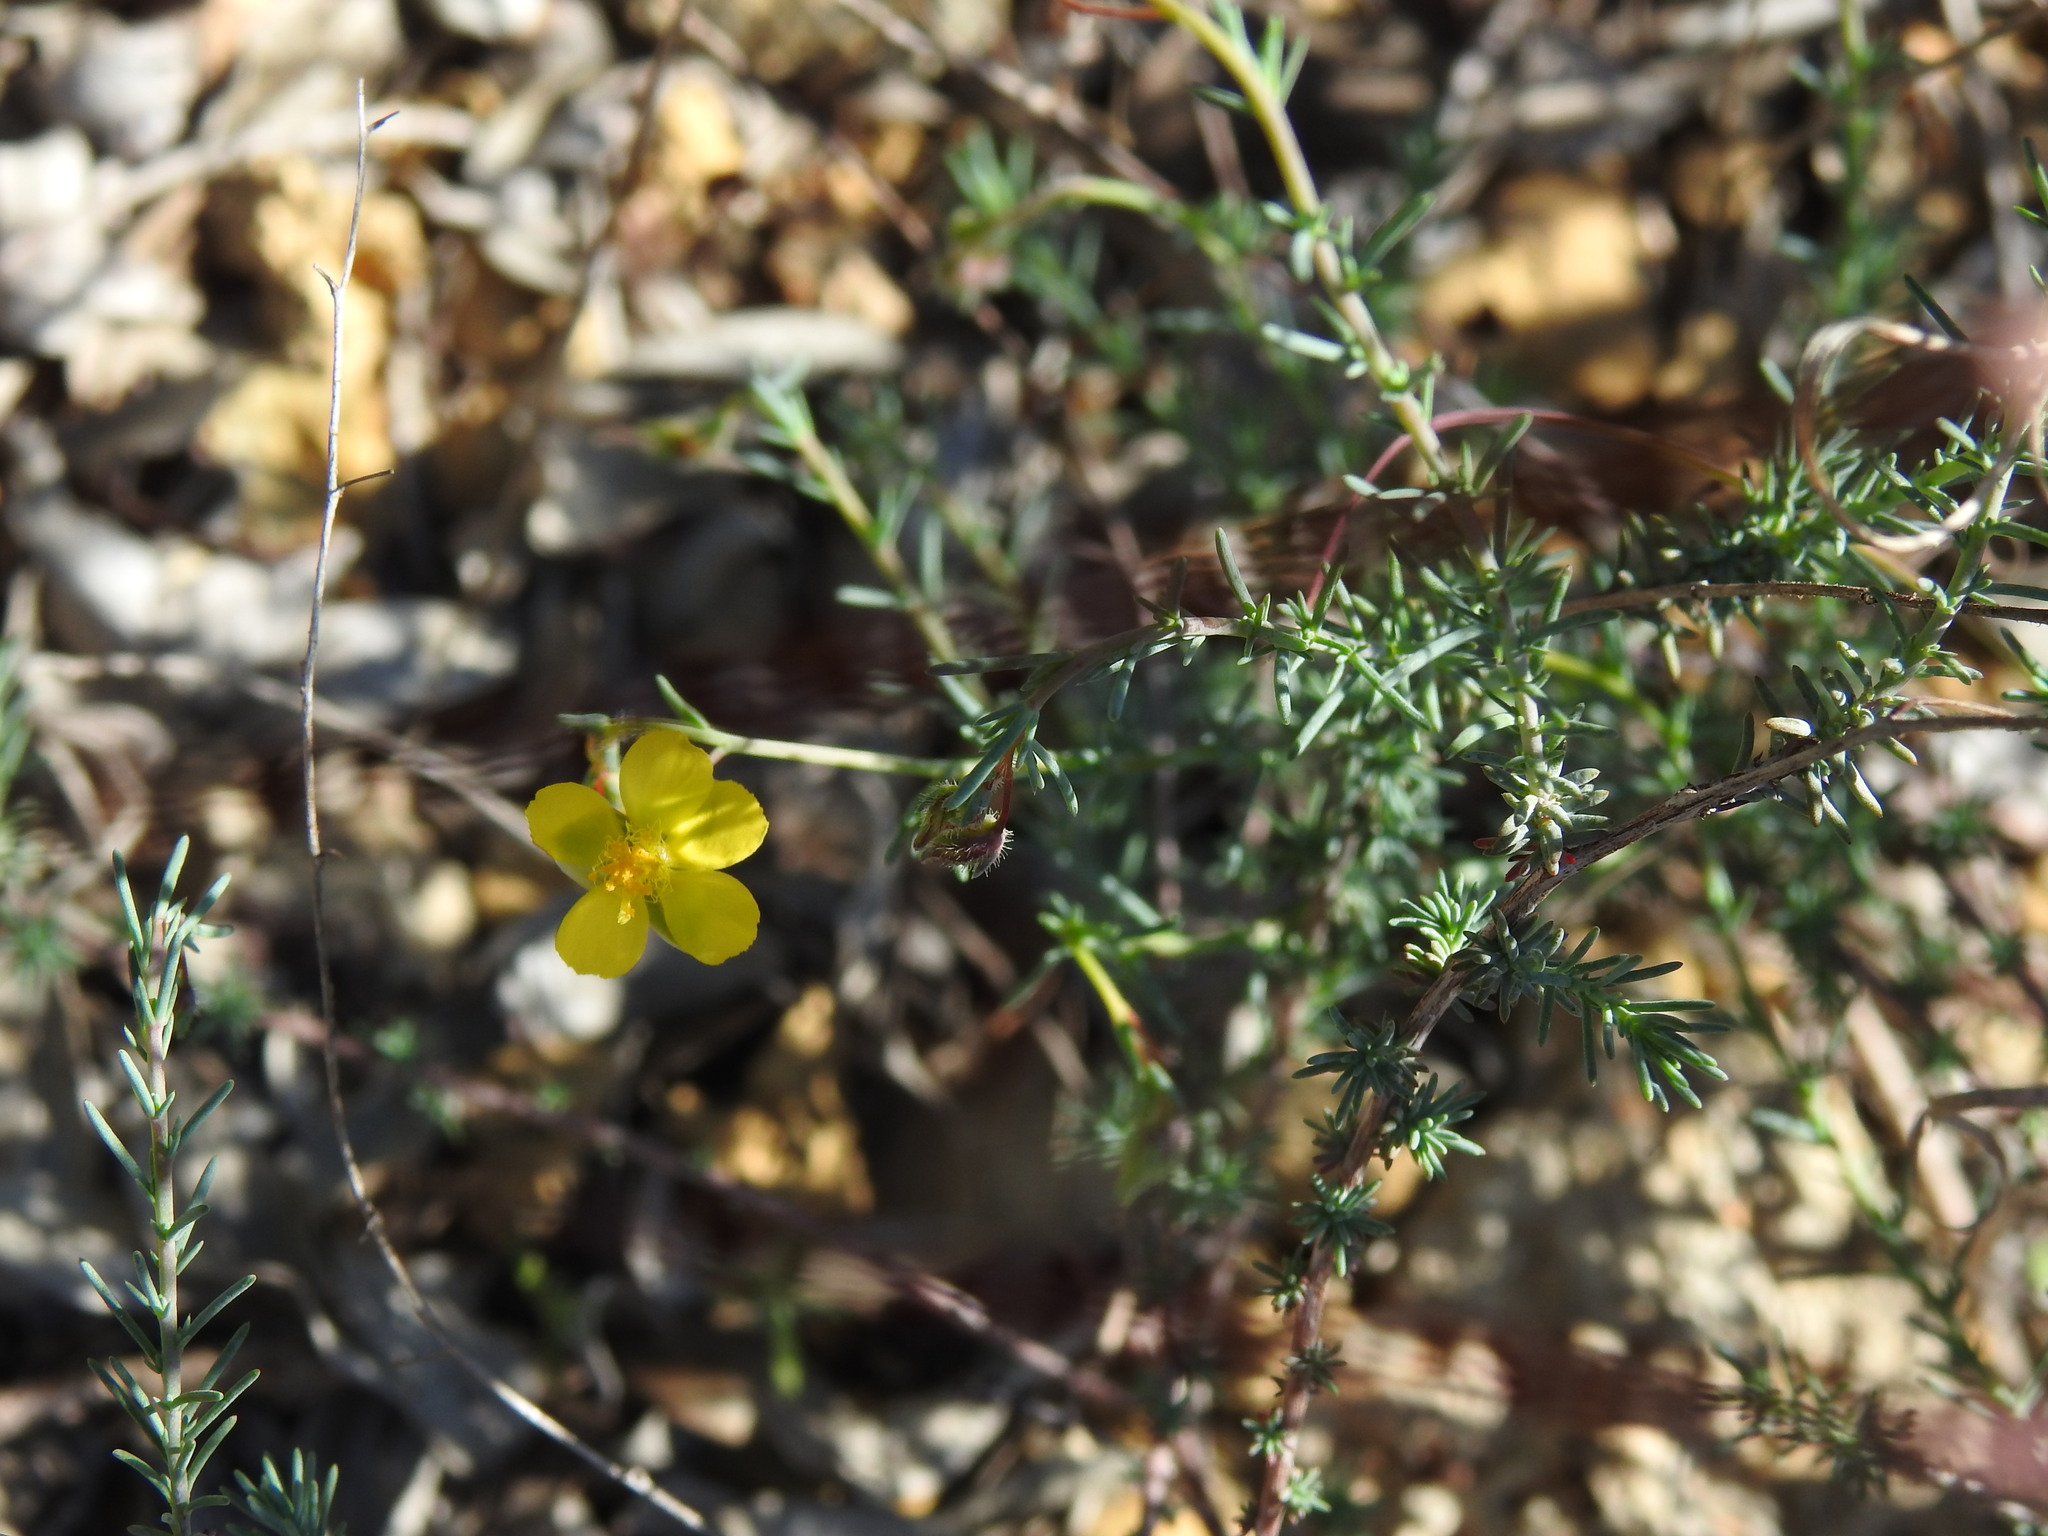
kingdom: Plantae
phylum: Tracheophyta
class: Magnoliopsida
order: Malvales
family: Cistaceae
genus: Fumana
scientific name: Fumana laevipes
